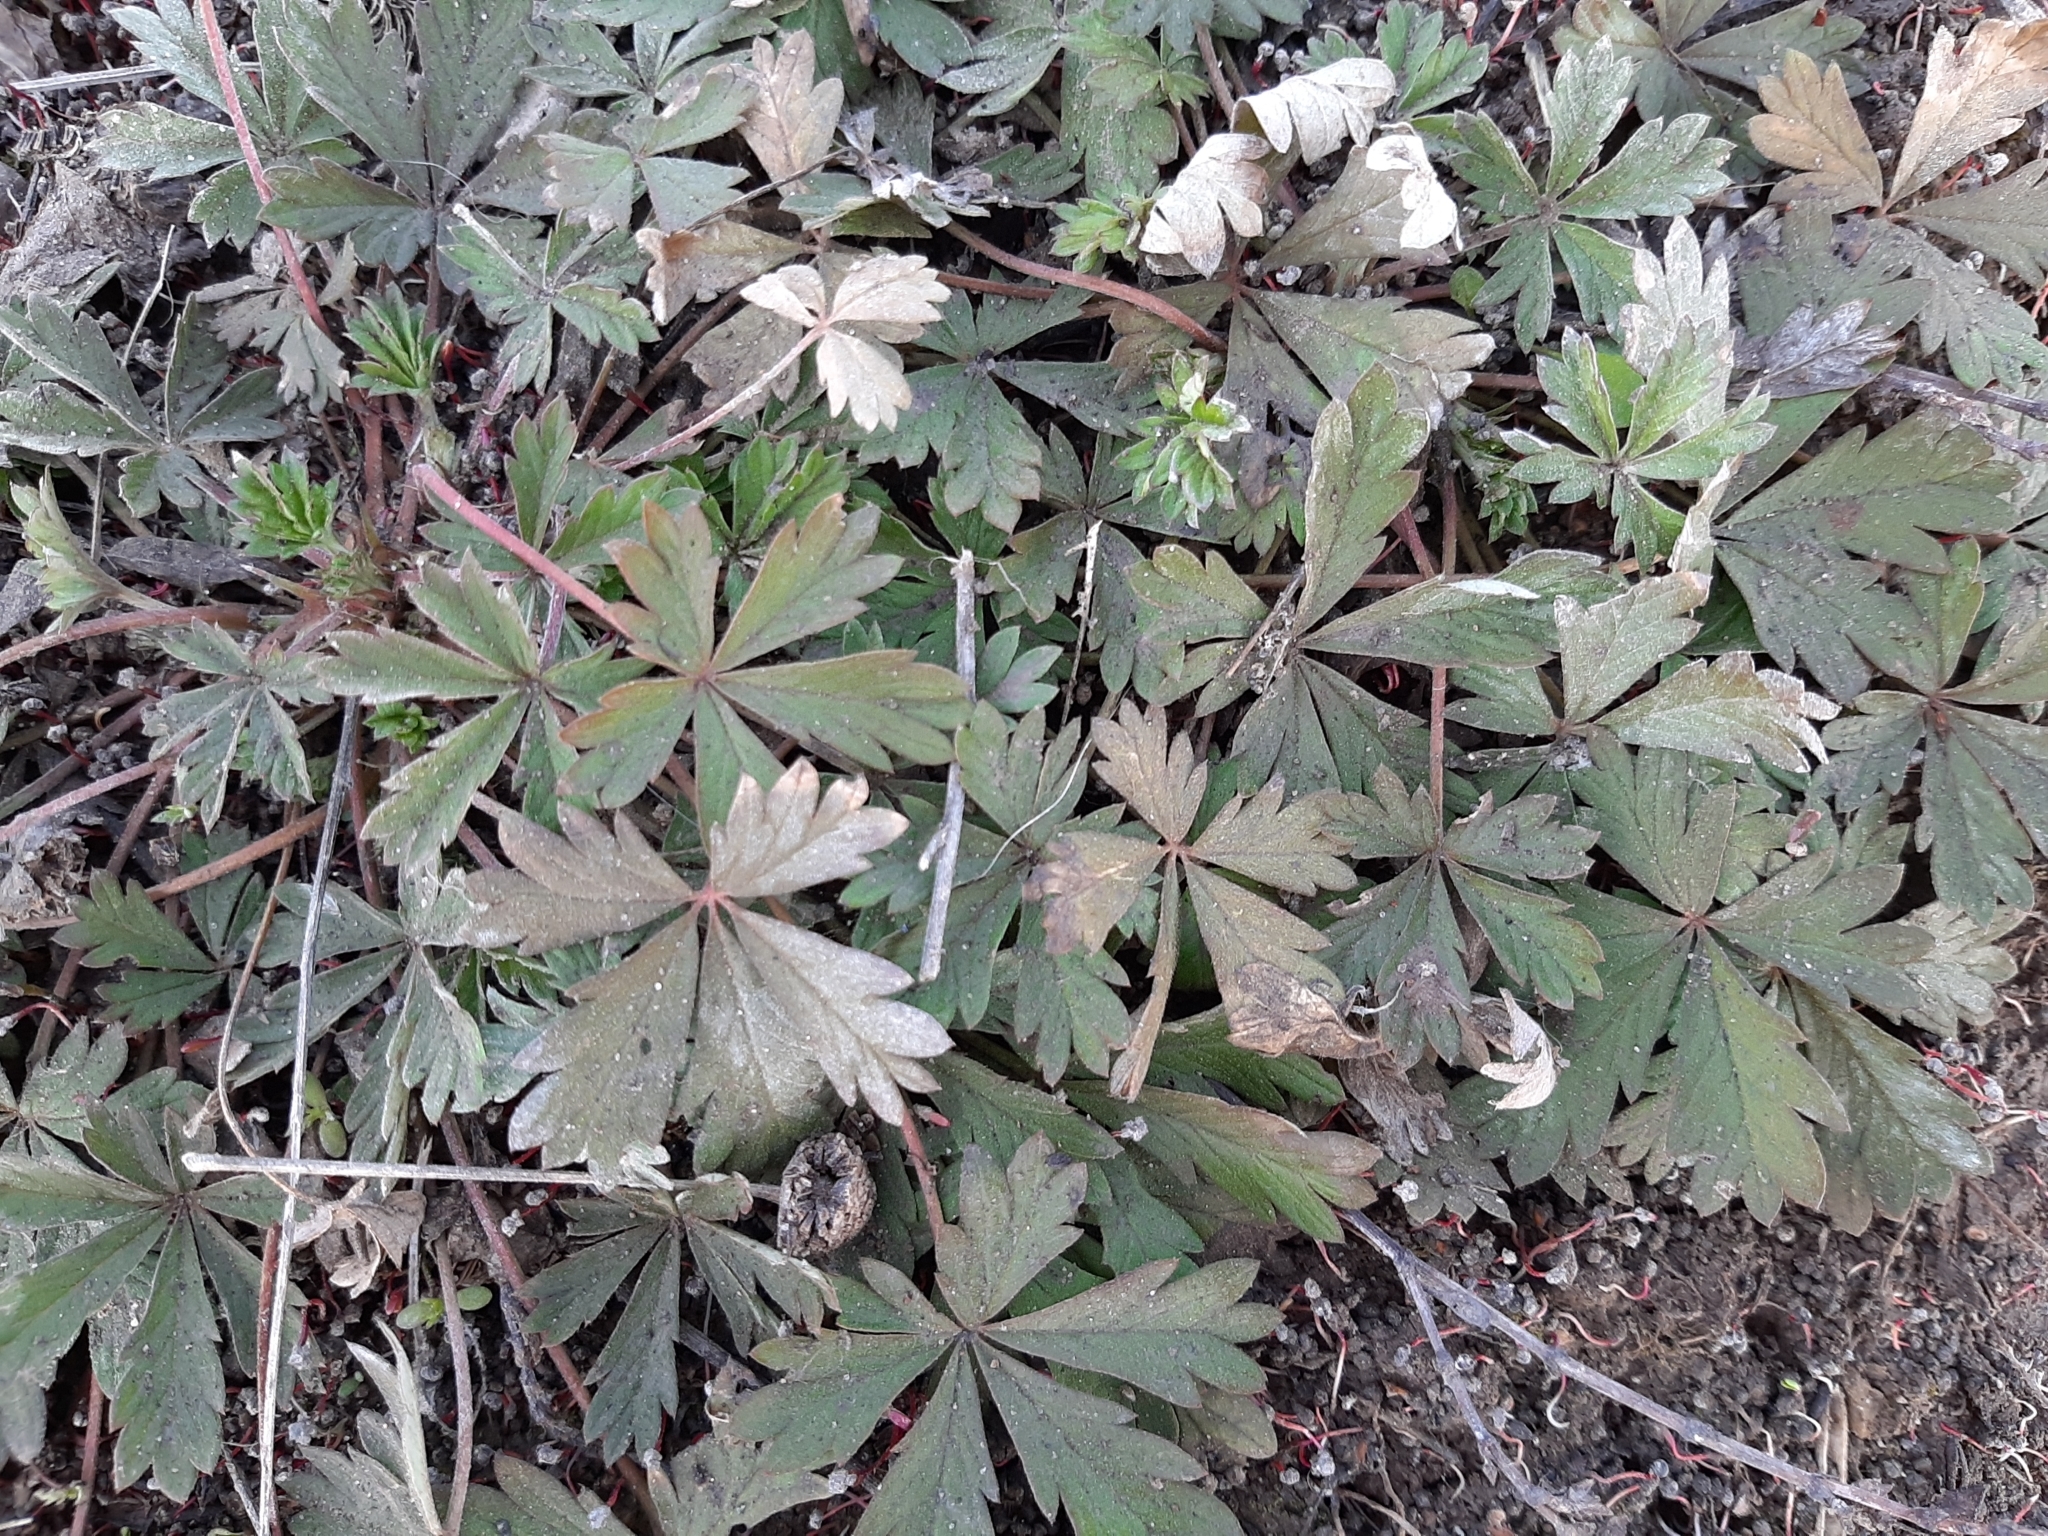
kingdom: Plantae
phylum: Tracheophyta
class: Magnoliopsida
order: Rosales
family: Rosaceae
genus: Potentilla
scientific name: Potentilla argentea
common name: Hoary cinquefoil
